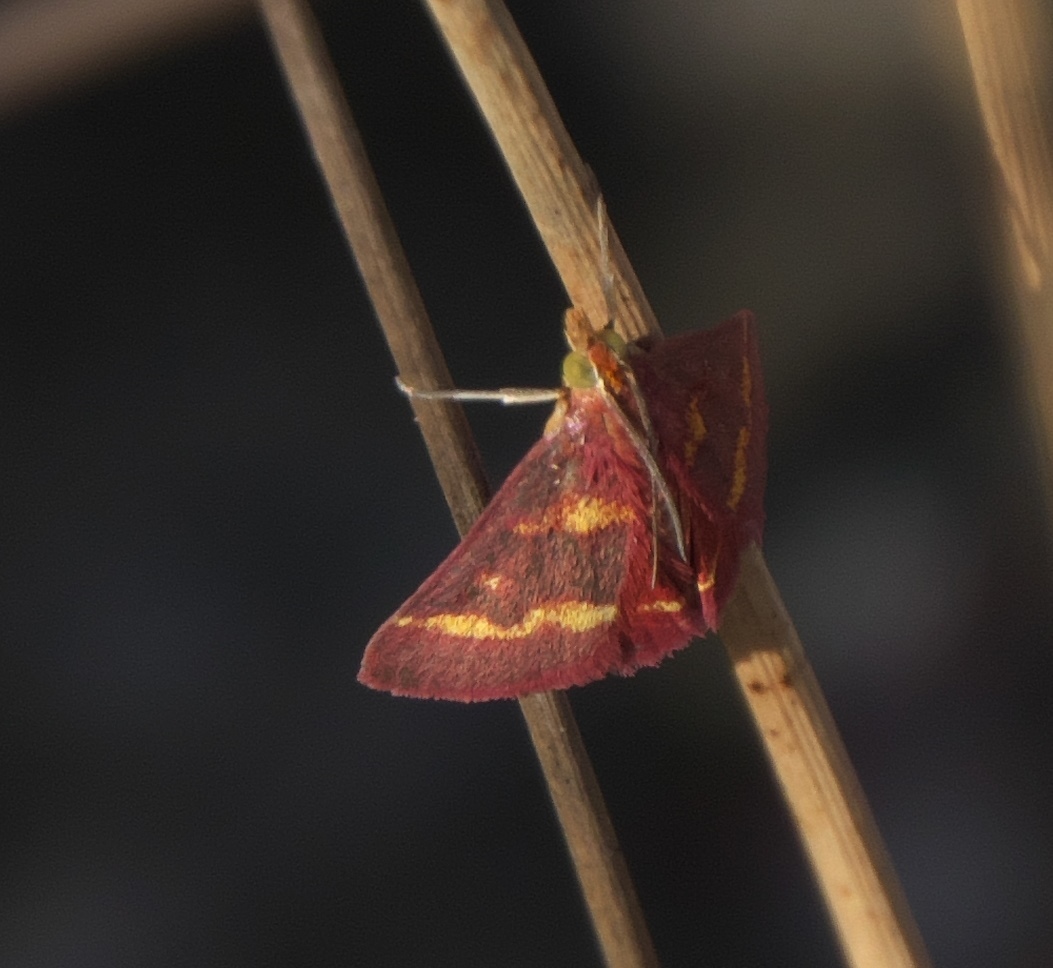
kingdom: Animalia
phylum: Arthropoda
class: Insecta
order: Lepidoptera
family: Crambidae
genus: Pyrausta
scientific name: Pyrausta tyralis
